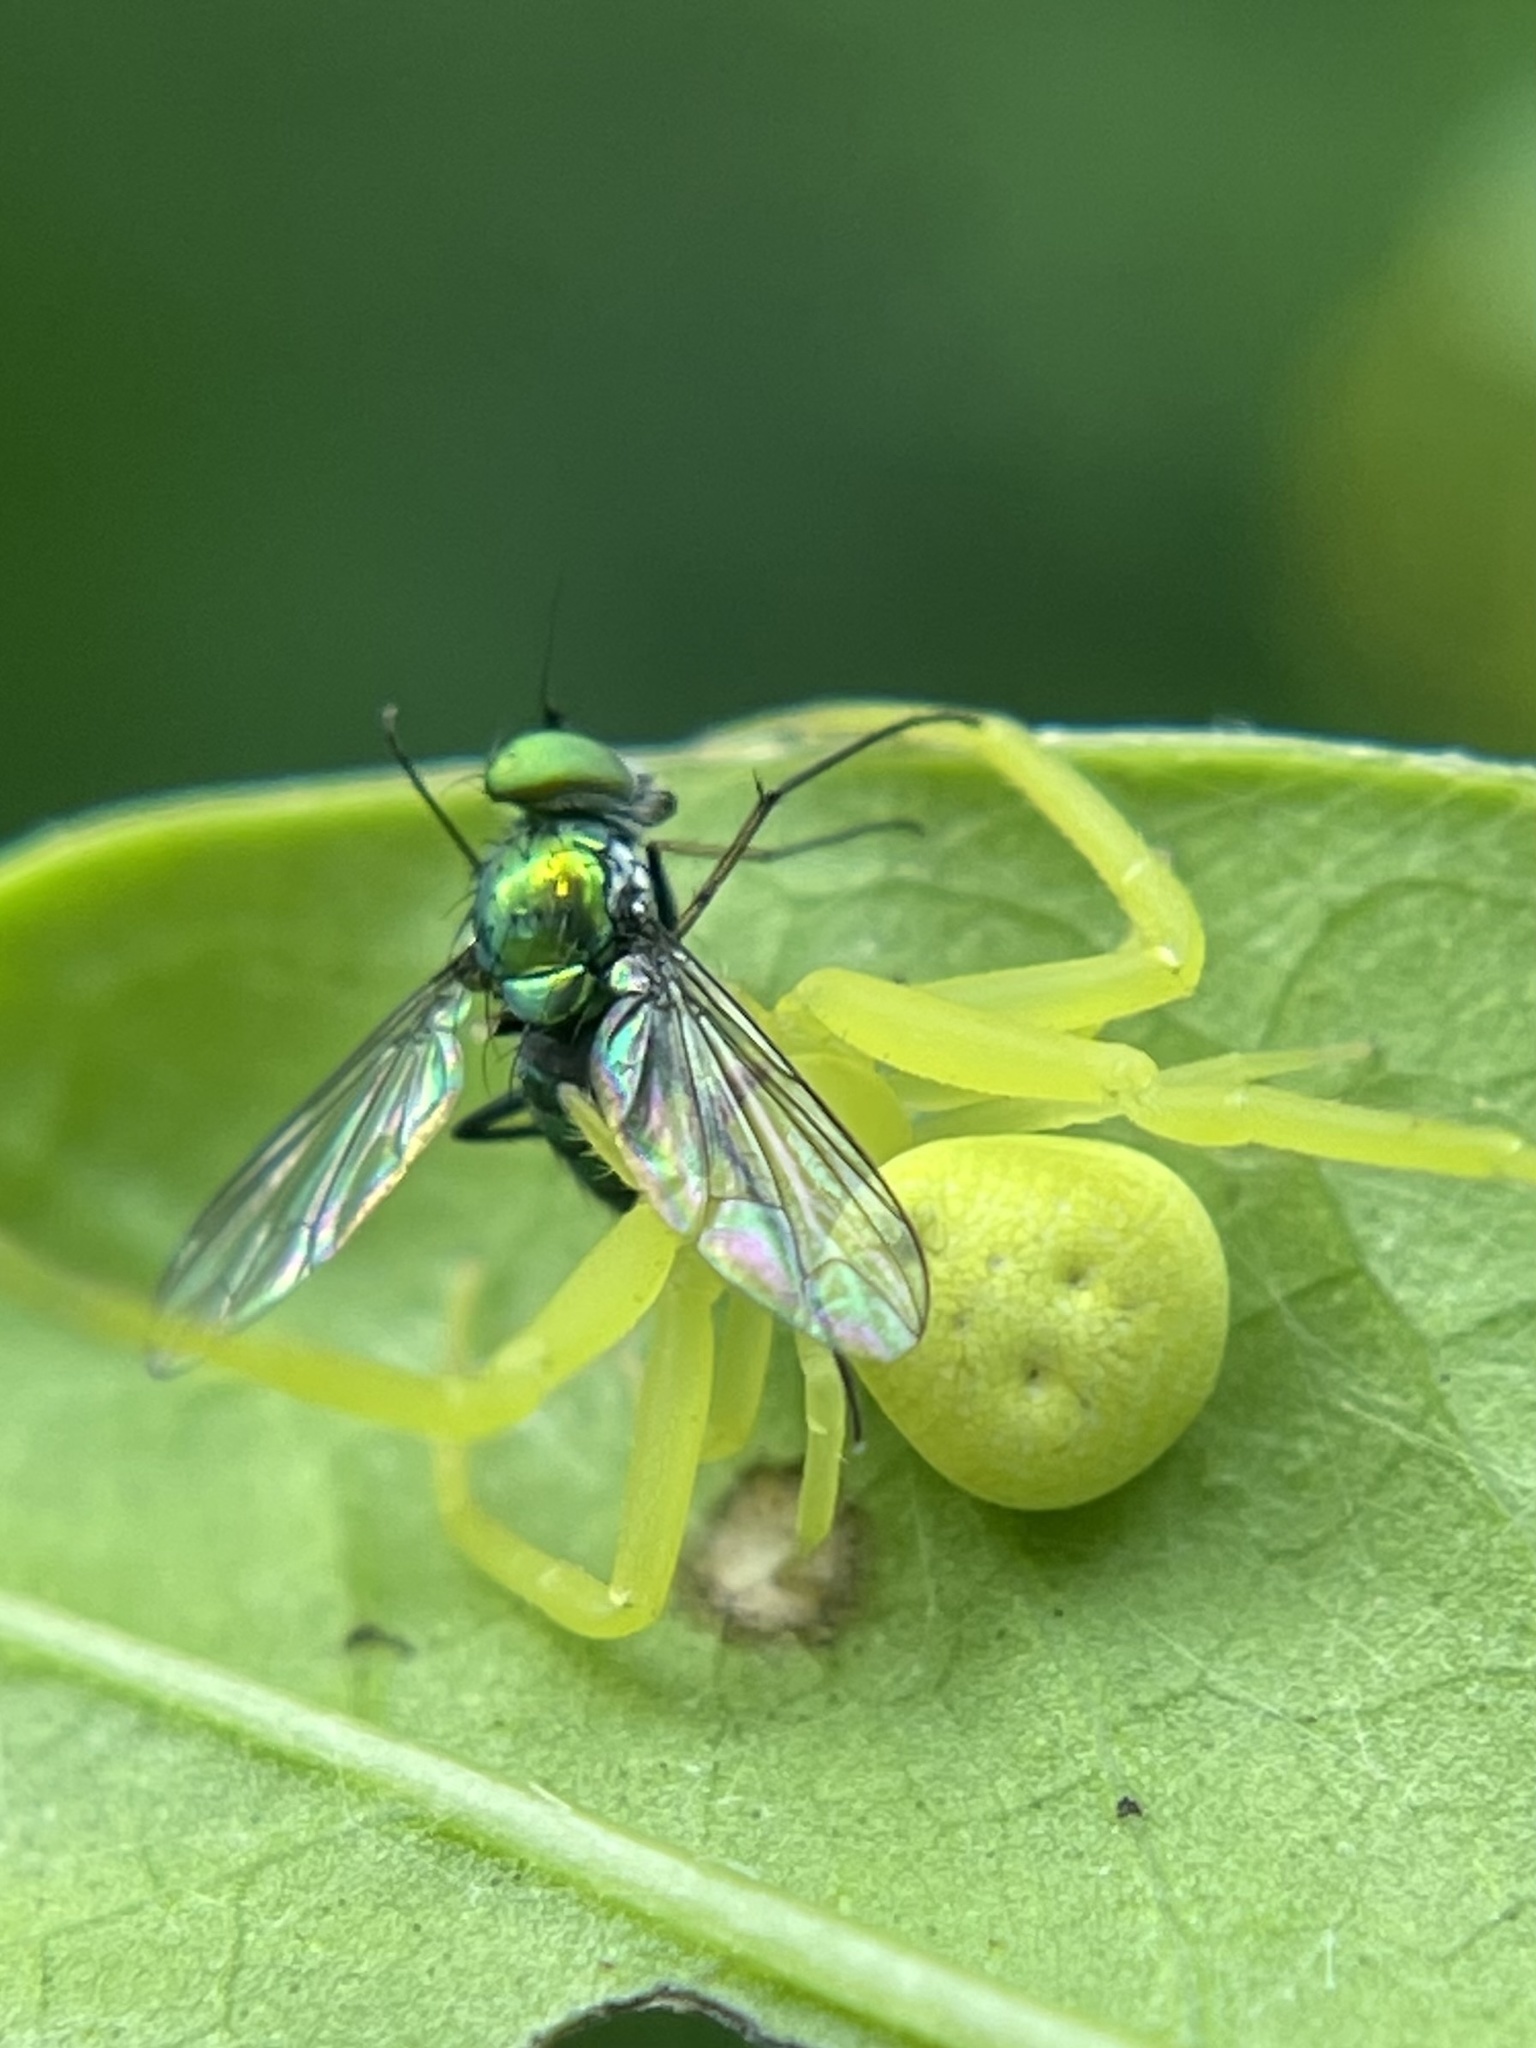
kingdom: Animalia
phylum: Arthropoda
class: Insecta
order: Diptera
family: Dolichopodidae
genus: Condylostylus
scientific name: Condylostylus longicornis
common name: Long-legged fly
